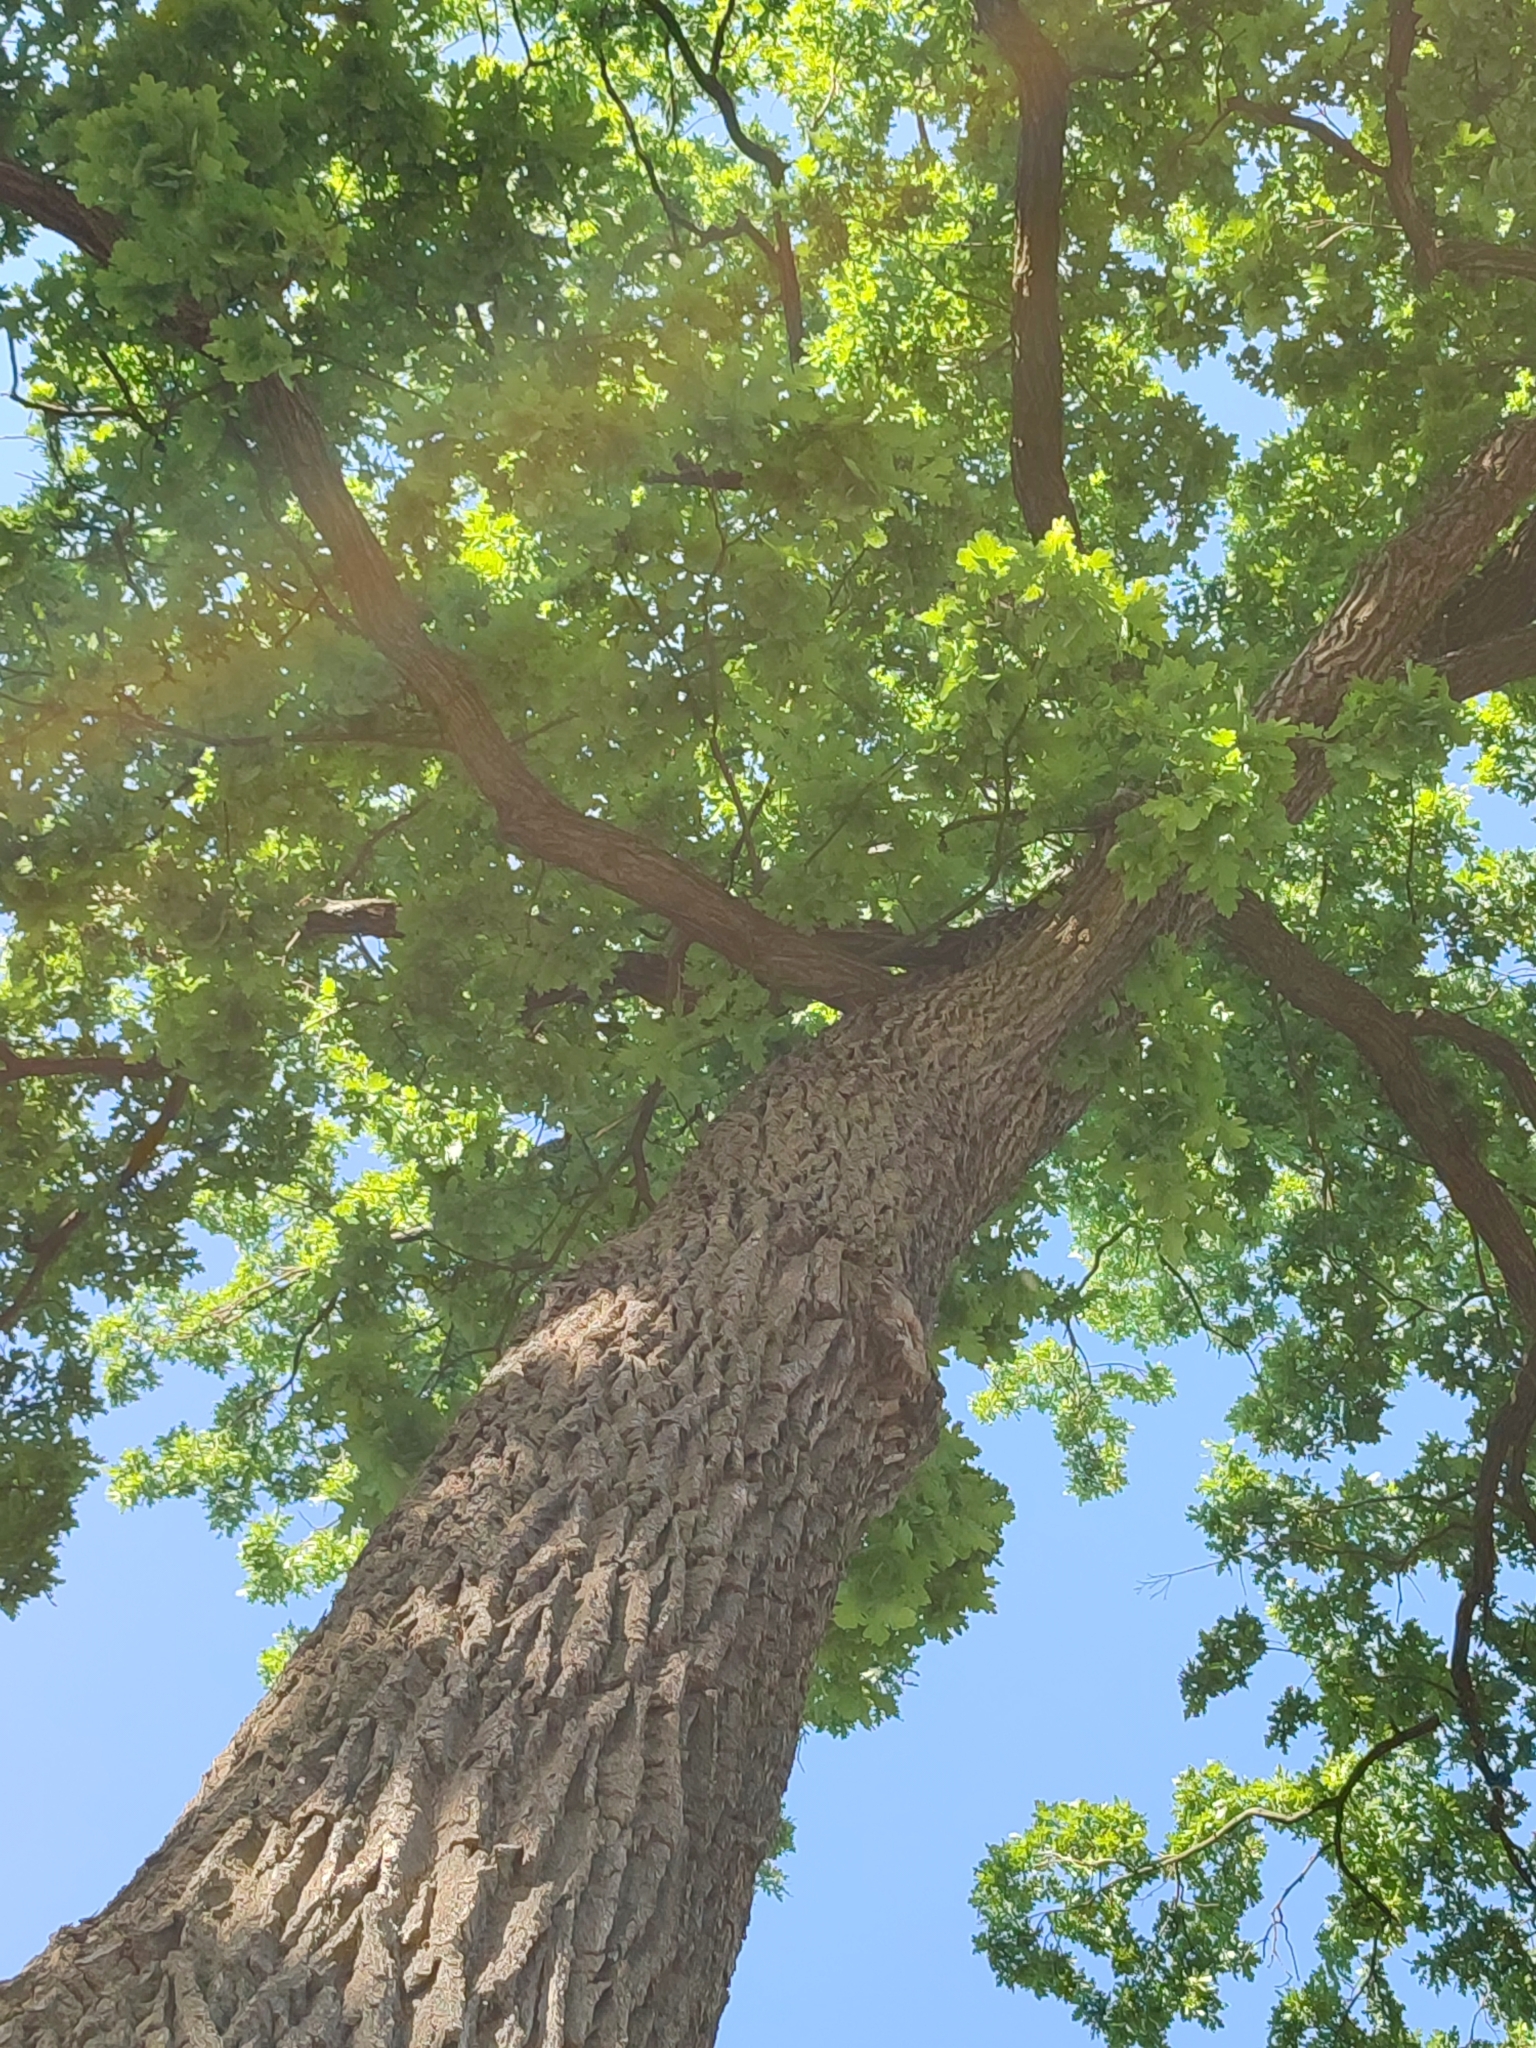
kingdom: Plantae
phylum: Tracheophyta
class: Magnoliopsida
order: Fagales
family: Fagaceae
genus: Quercus
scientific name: Quercus robur
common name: Pedunculate oak
